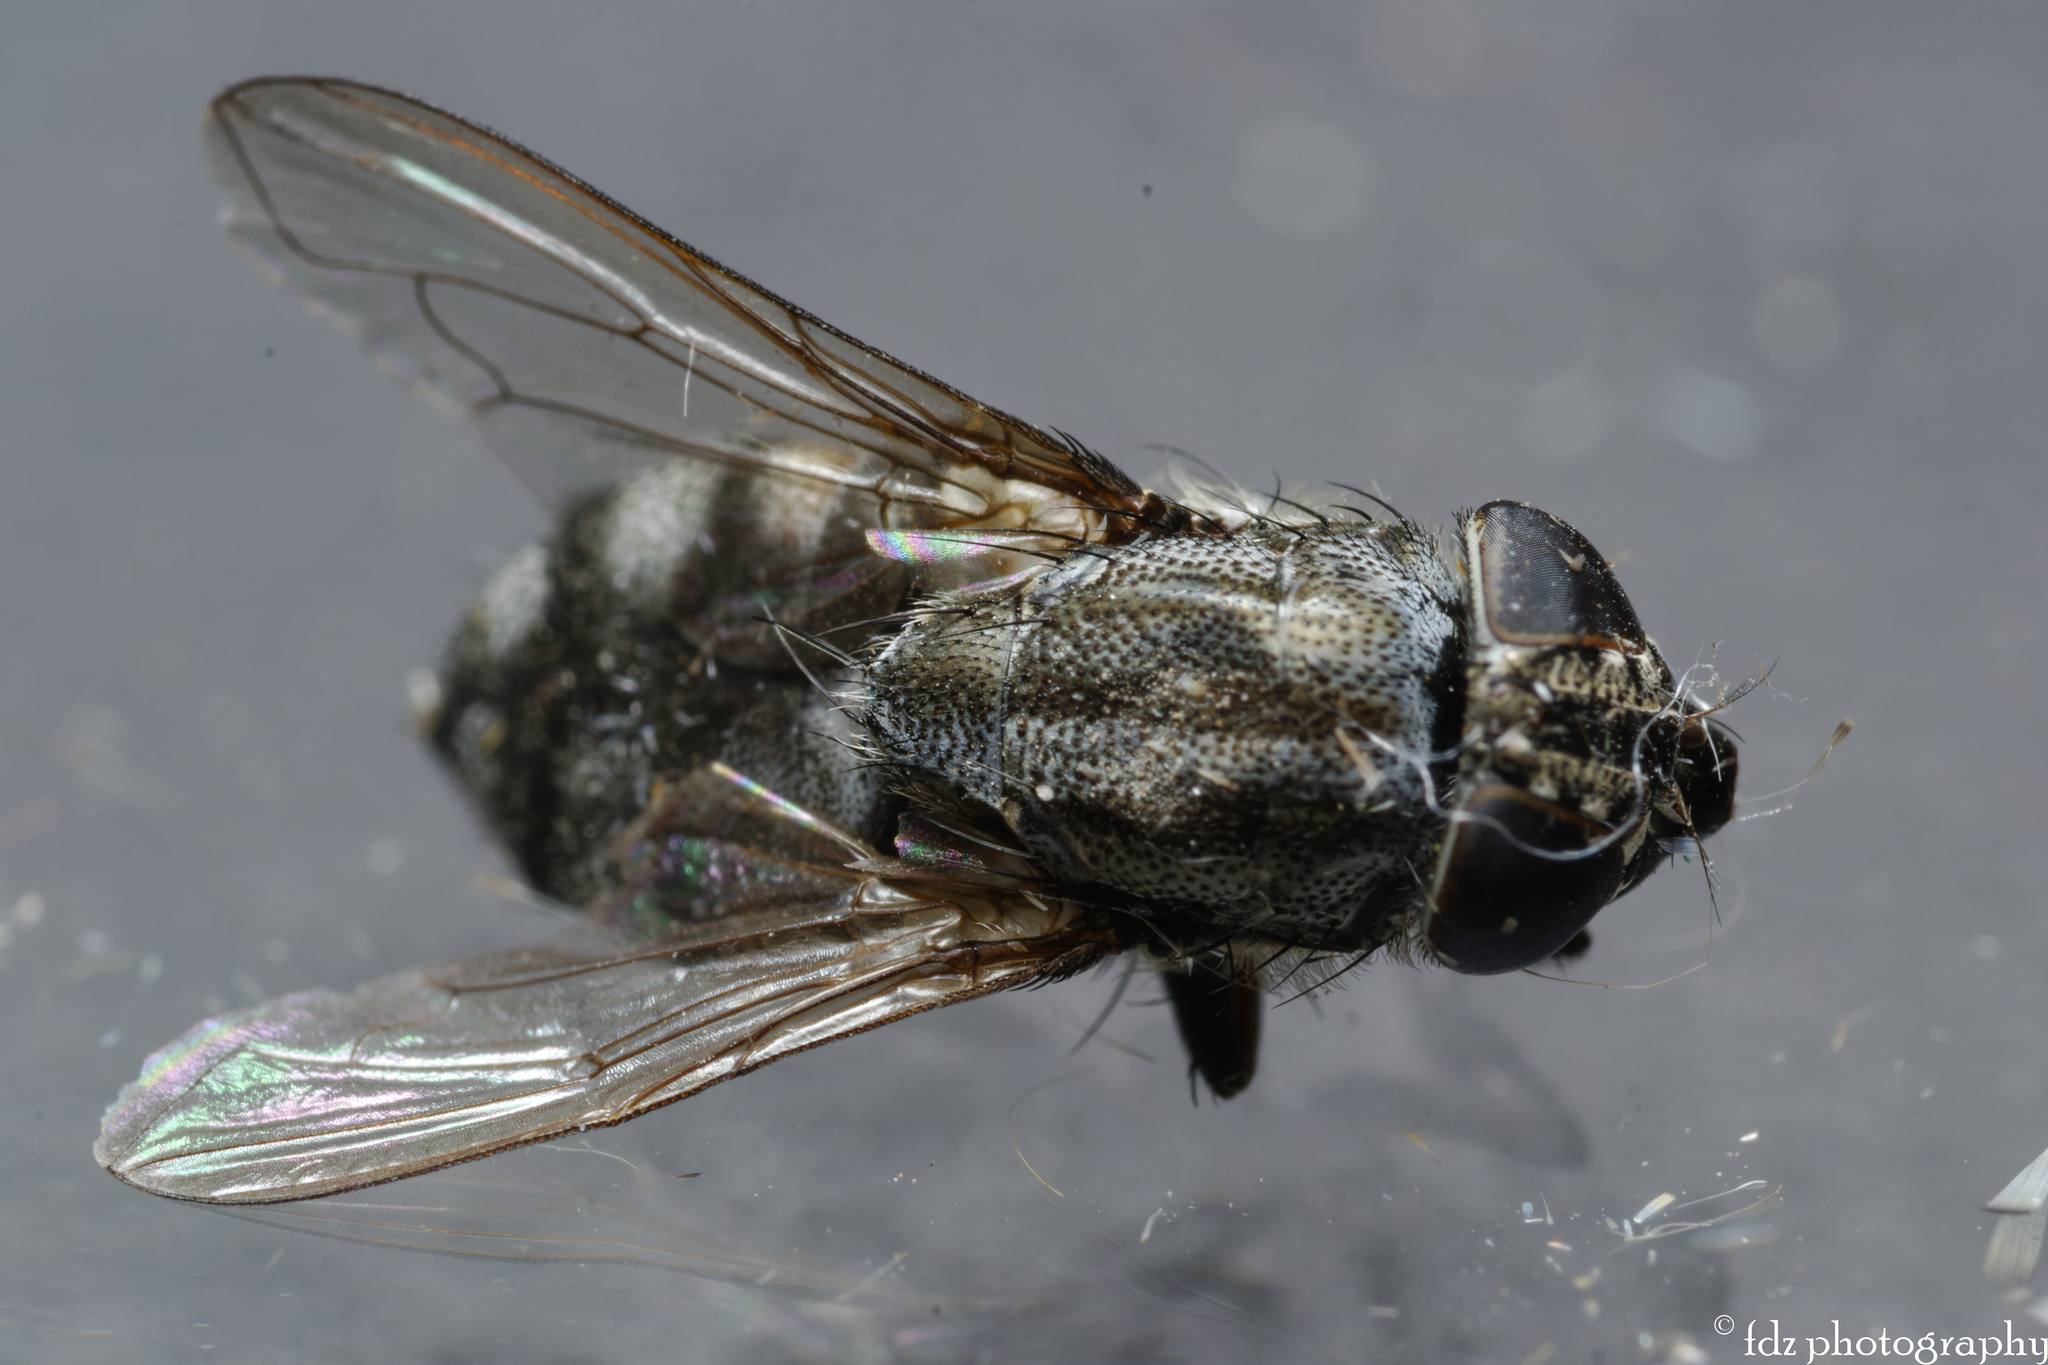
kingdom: Animalia
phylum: Arthropoda
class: Insecta
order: Diptera
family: Calliphoridae
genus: Stomorhina
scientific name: Stomorhina lunata
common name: Locust blowfly
